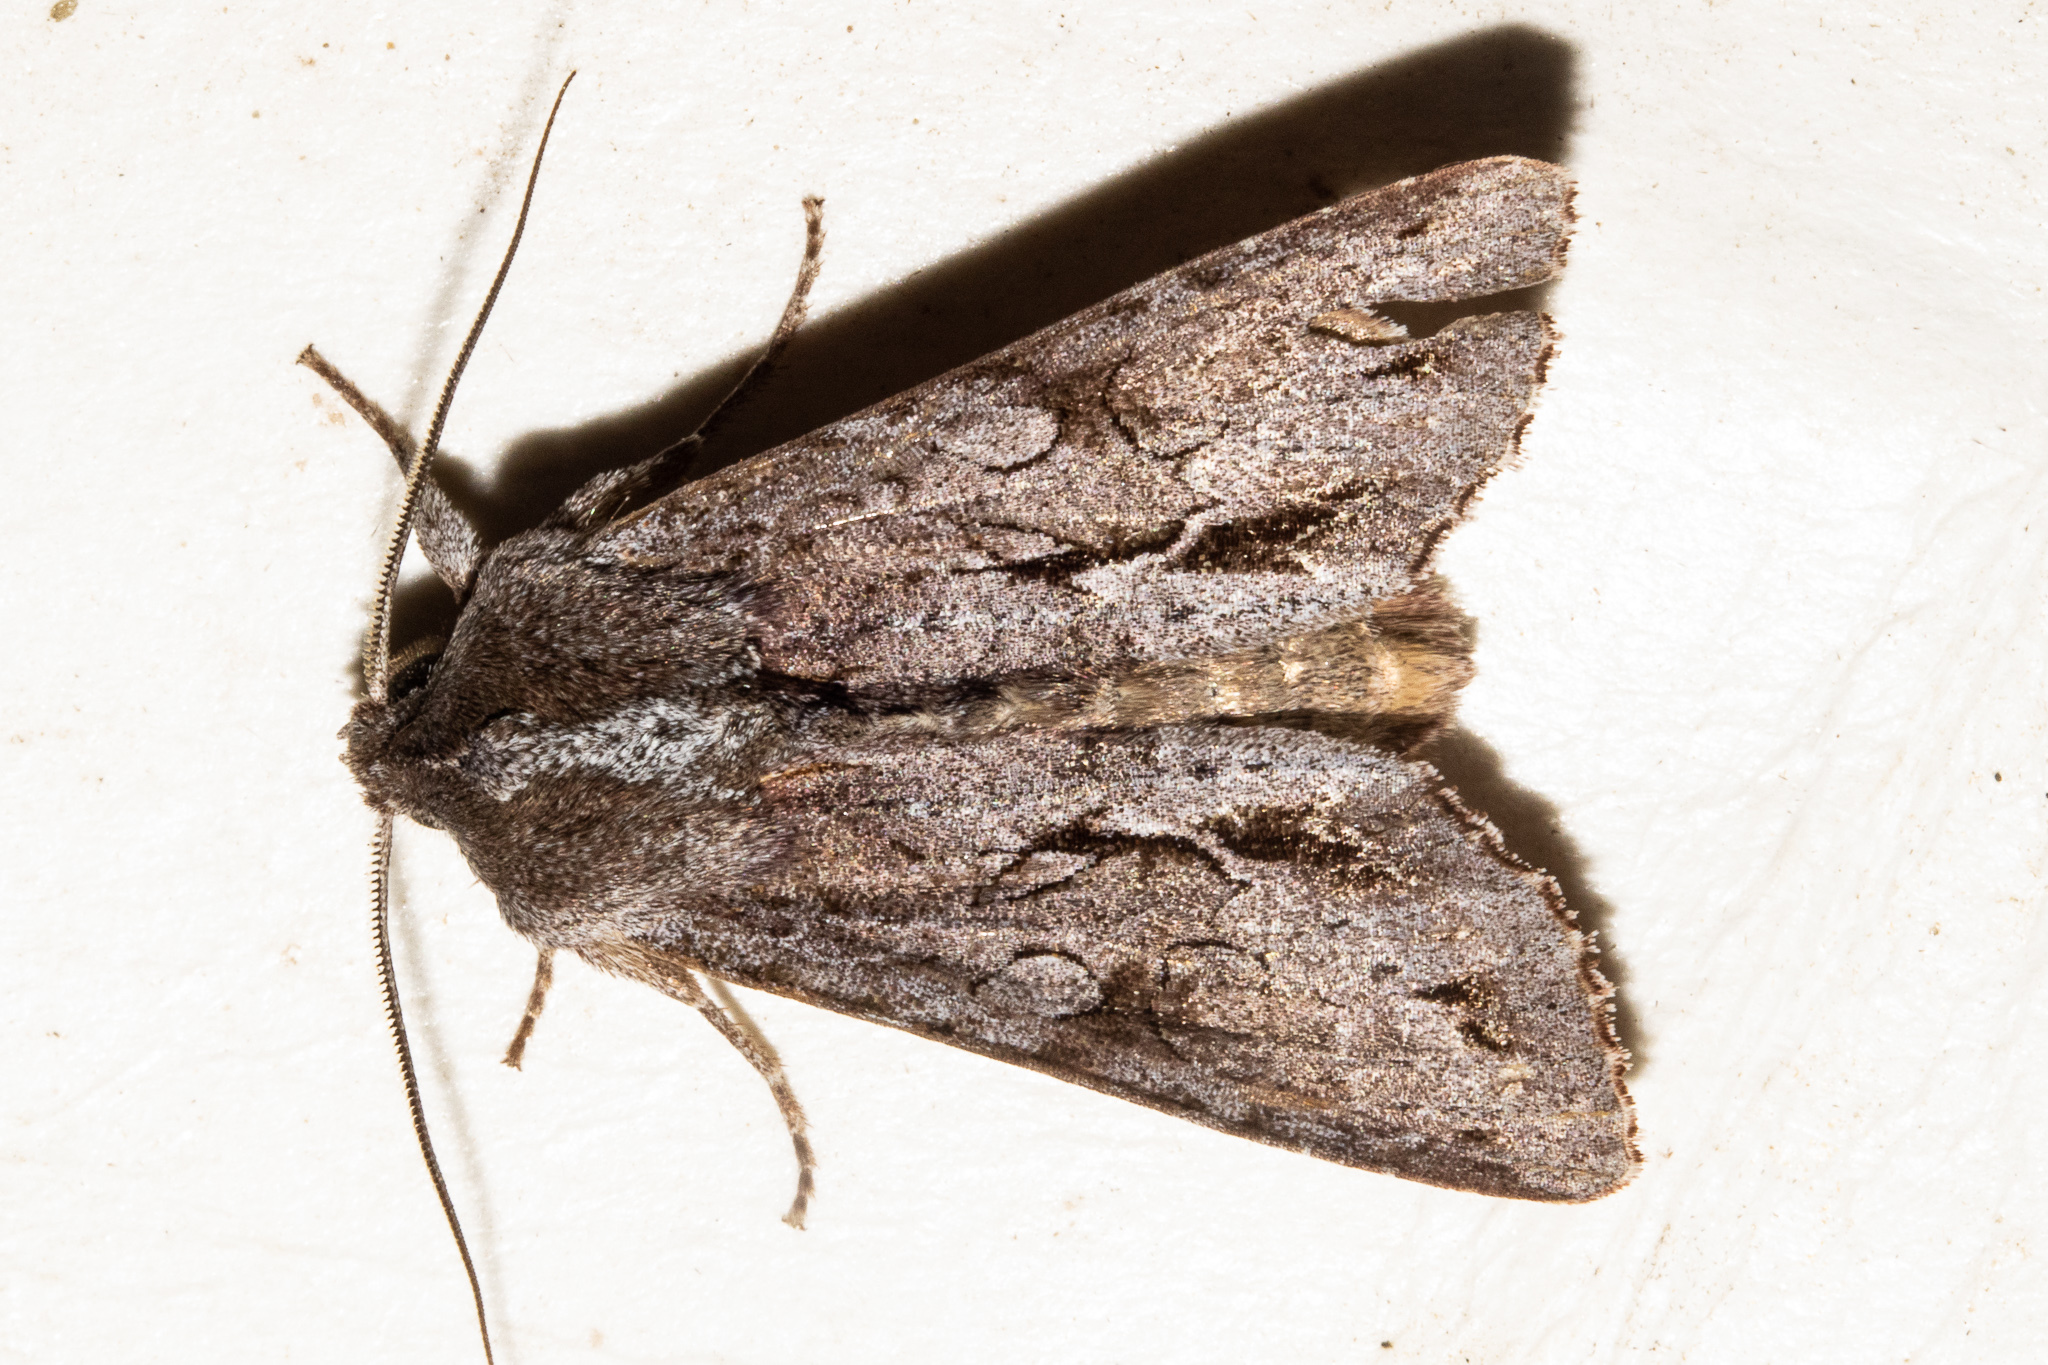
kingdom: Animalia
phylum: Arthropoda
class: Insecta
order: Lepidoptera
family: Noctuidae
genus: Ichneutica
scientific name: Ichneutica
